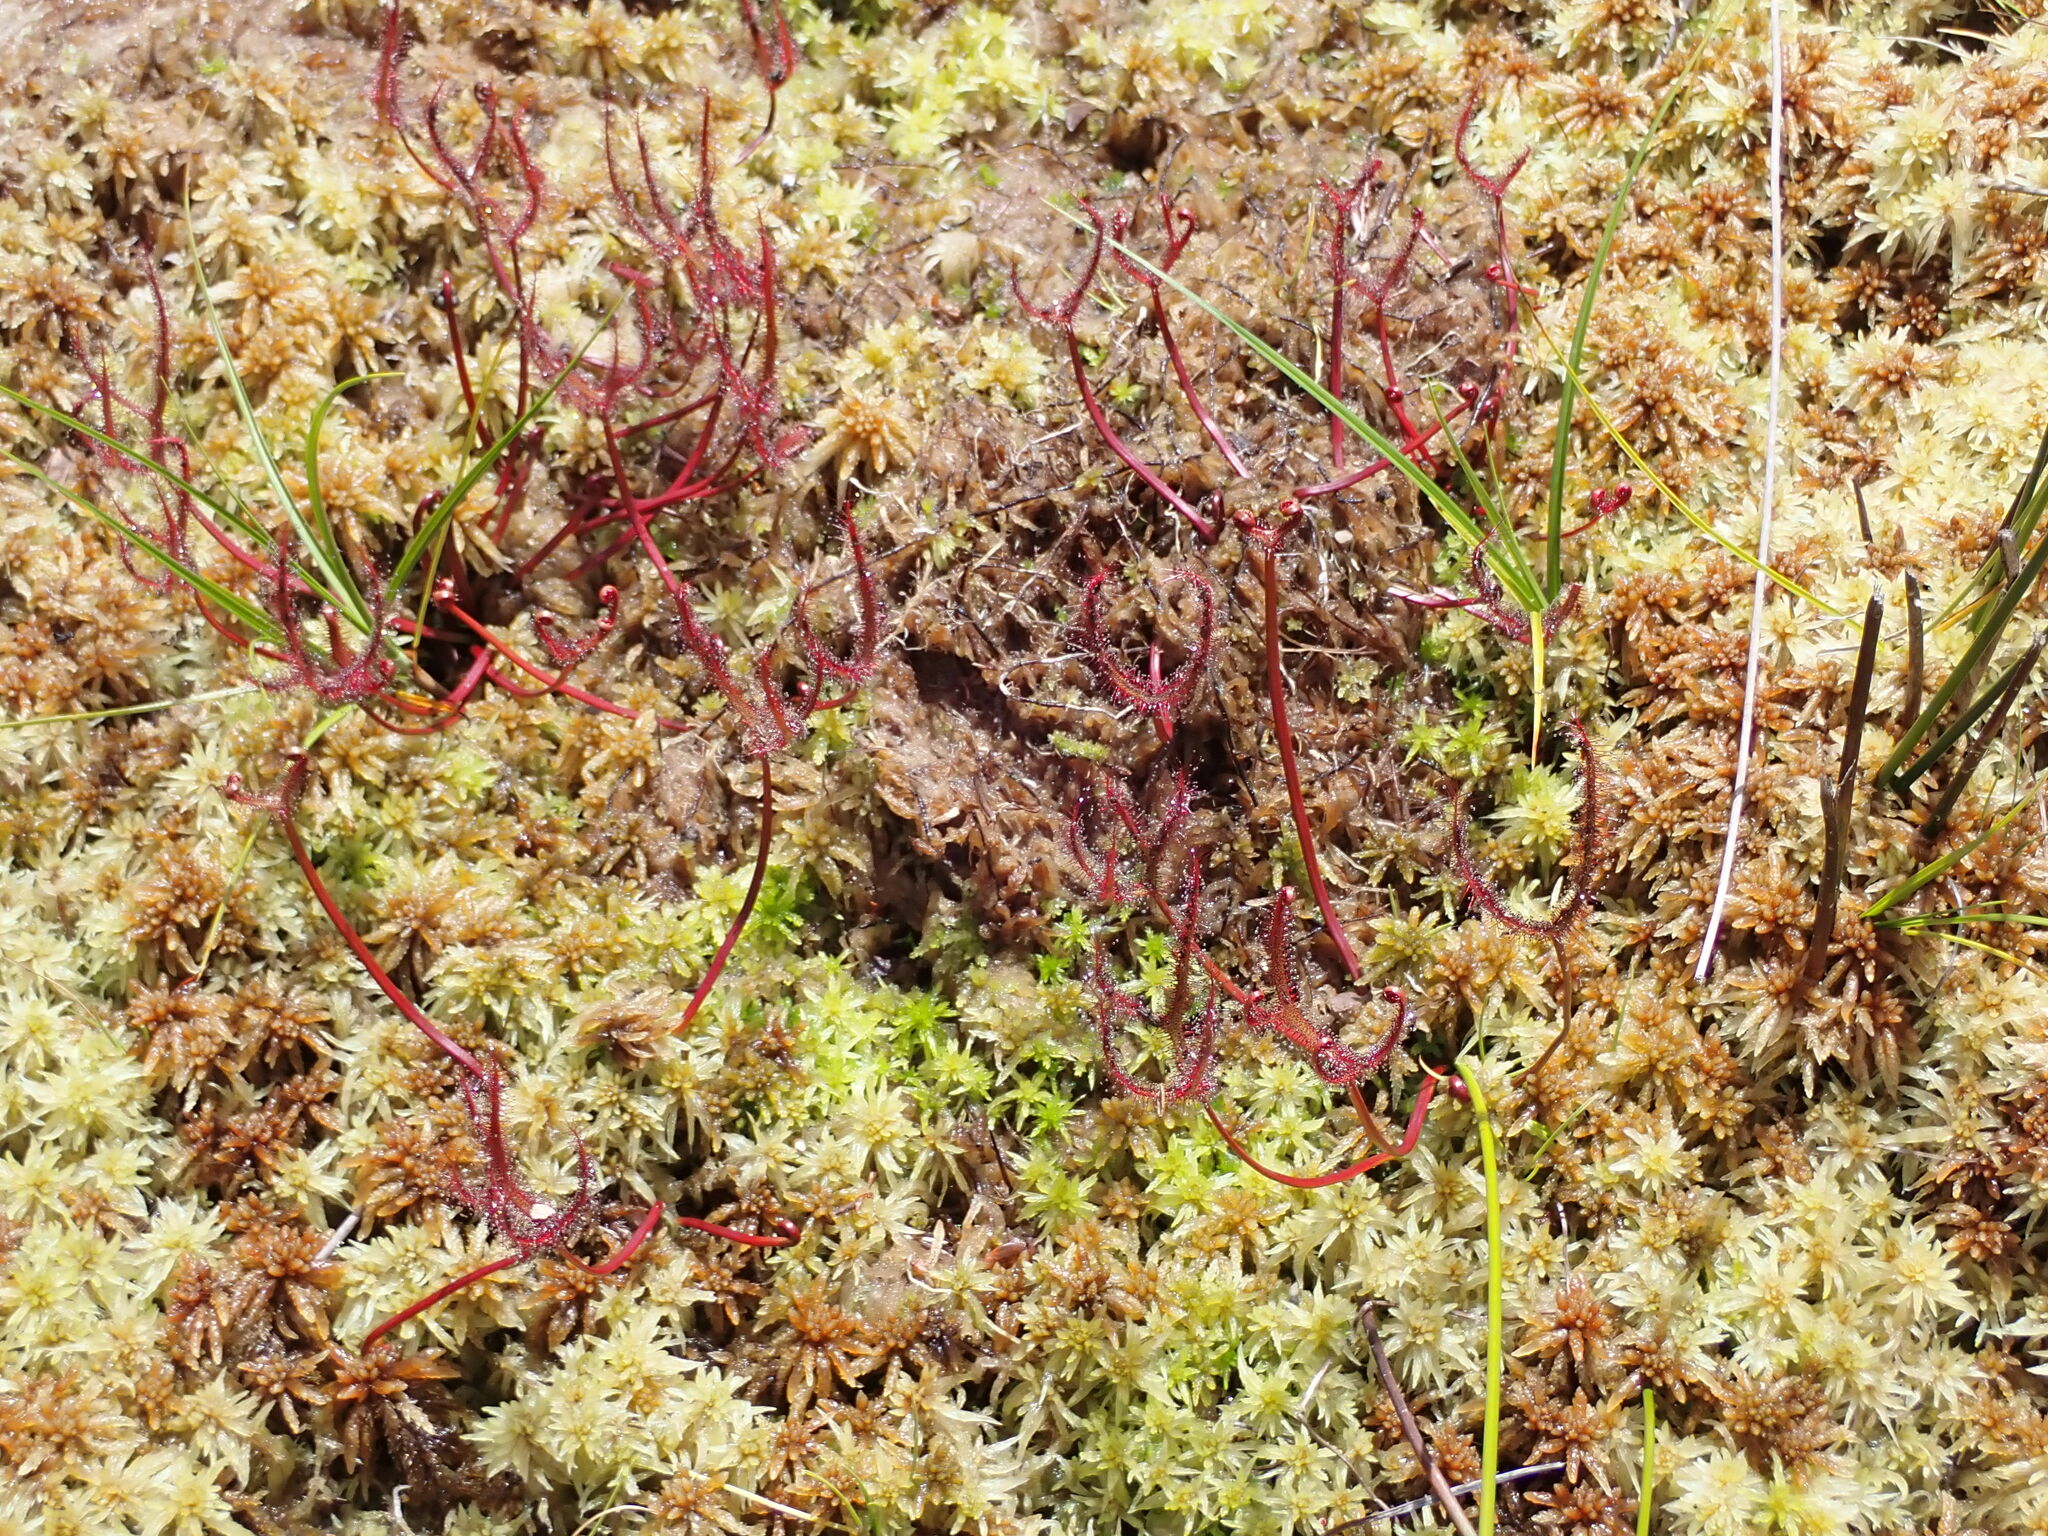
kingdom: Plantae
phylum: Tracheophyta
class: Magnoliopsida
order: Caryophyllales
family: Droseraceae
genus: Drosera
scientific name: Drosera binata
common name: Forked sundew
